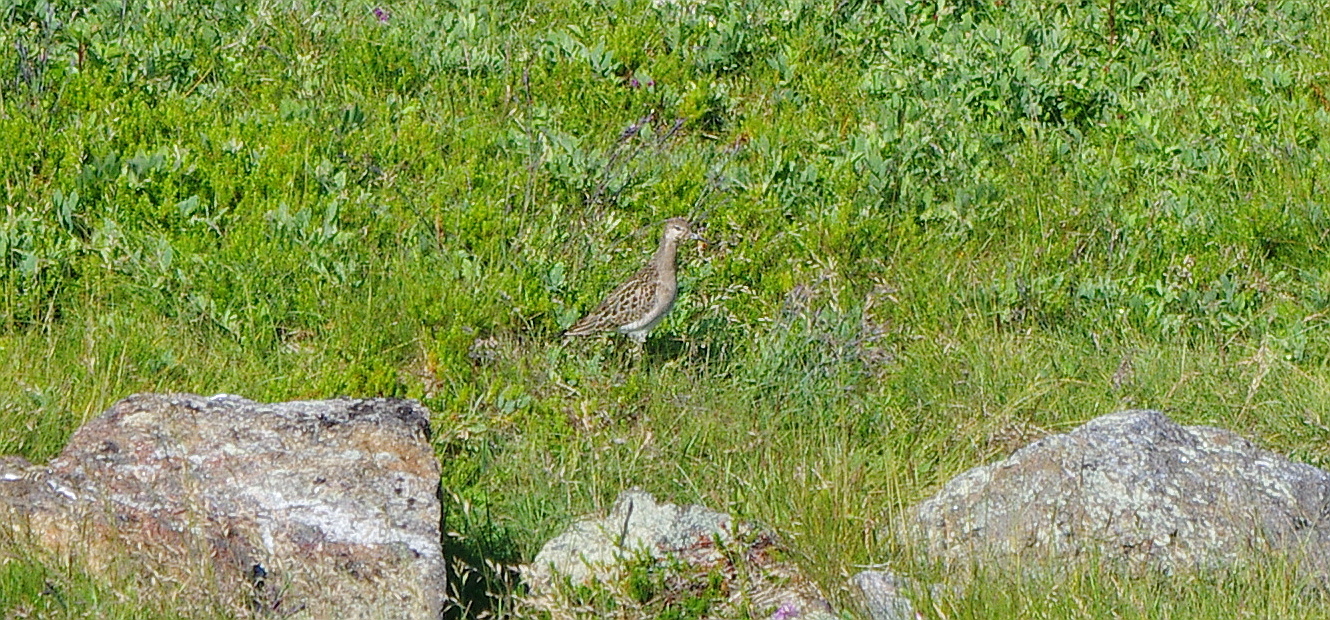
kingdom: Animalia
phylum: Chordata
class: Aves
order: Charadriiformes
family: Scolopacidae
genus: Calidris
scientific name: Calidris pugnax
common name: Ruff
